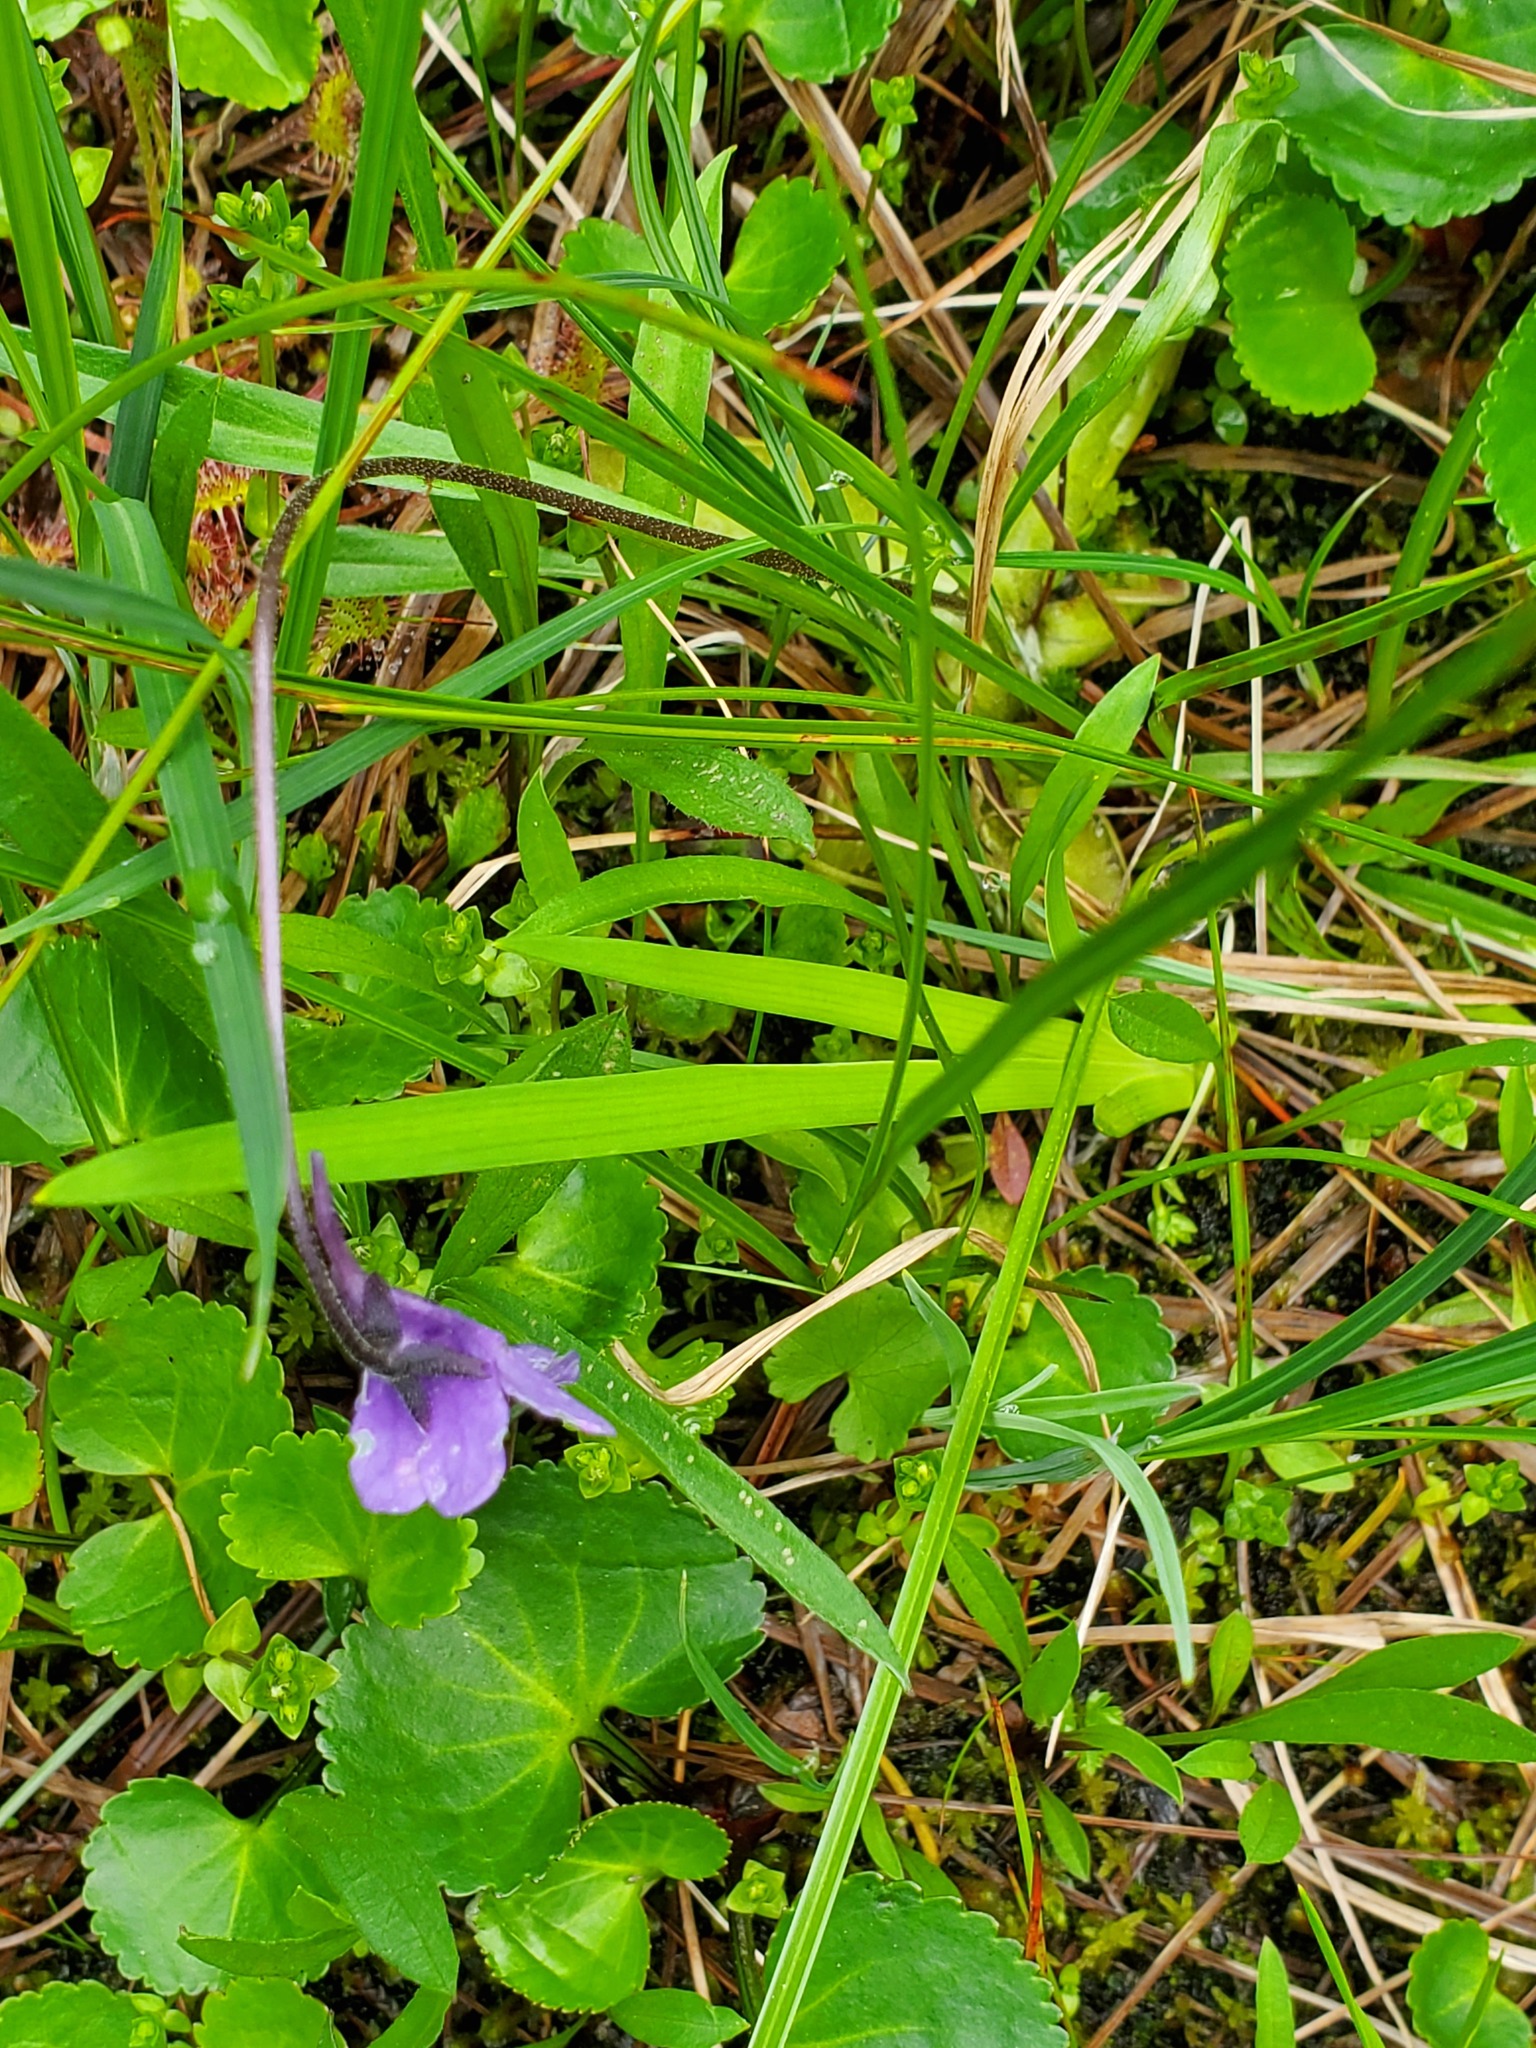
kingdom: Plantae
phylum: Tracheophyta
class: Magnoliopsida
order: Lamiales
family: Lentibulariaceae
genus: Pinguicula
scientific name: Pinguicula vulgaris
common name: Common butterwort
